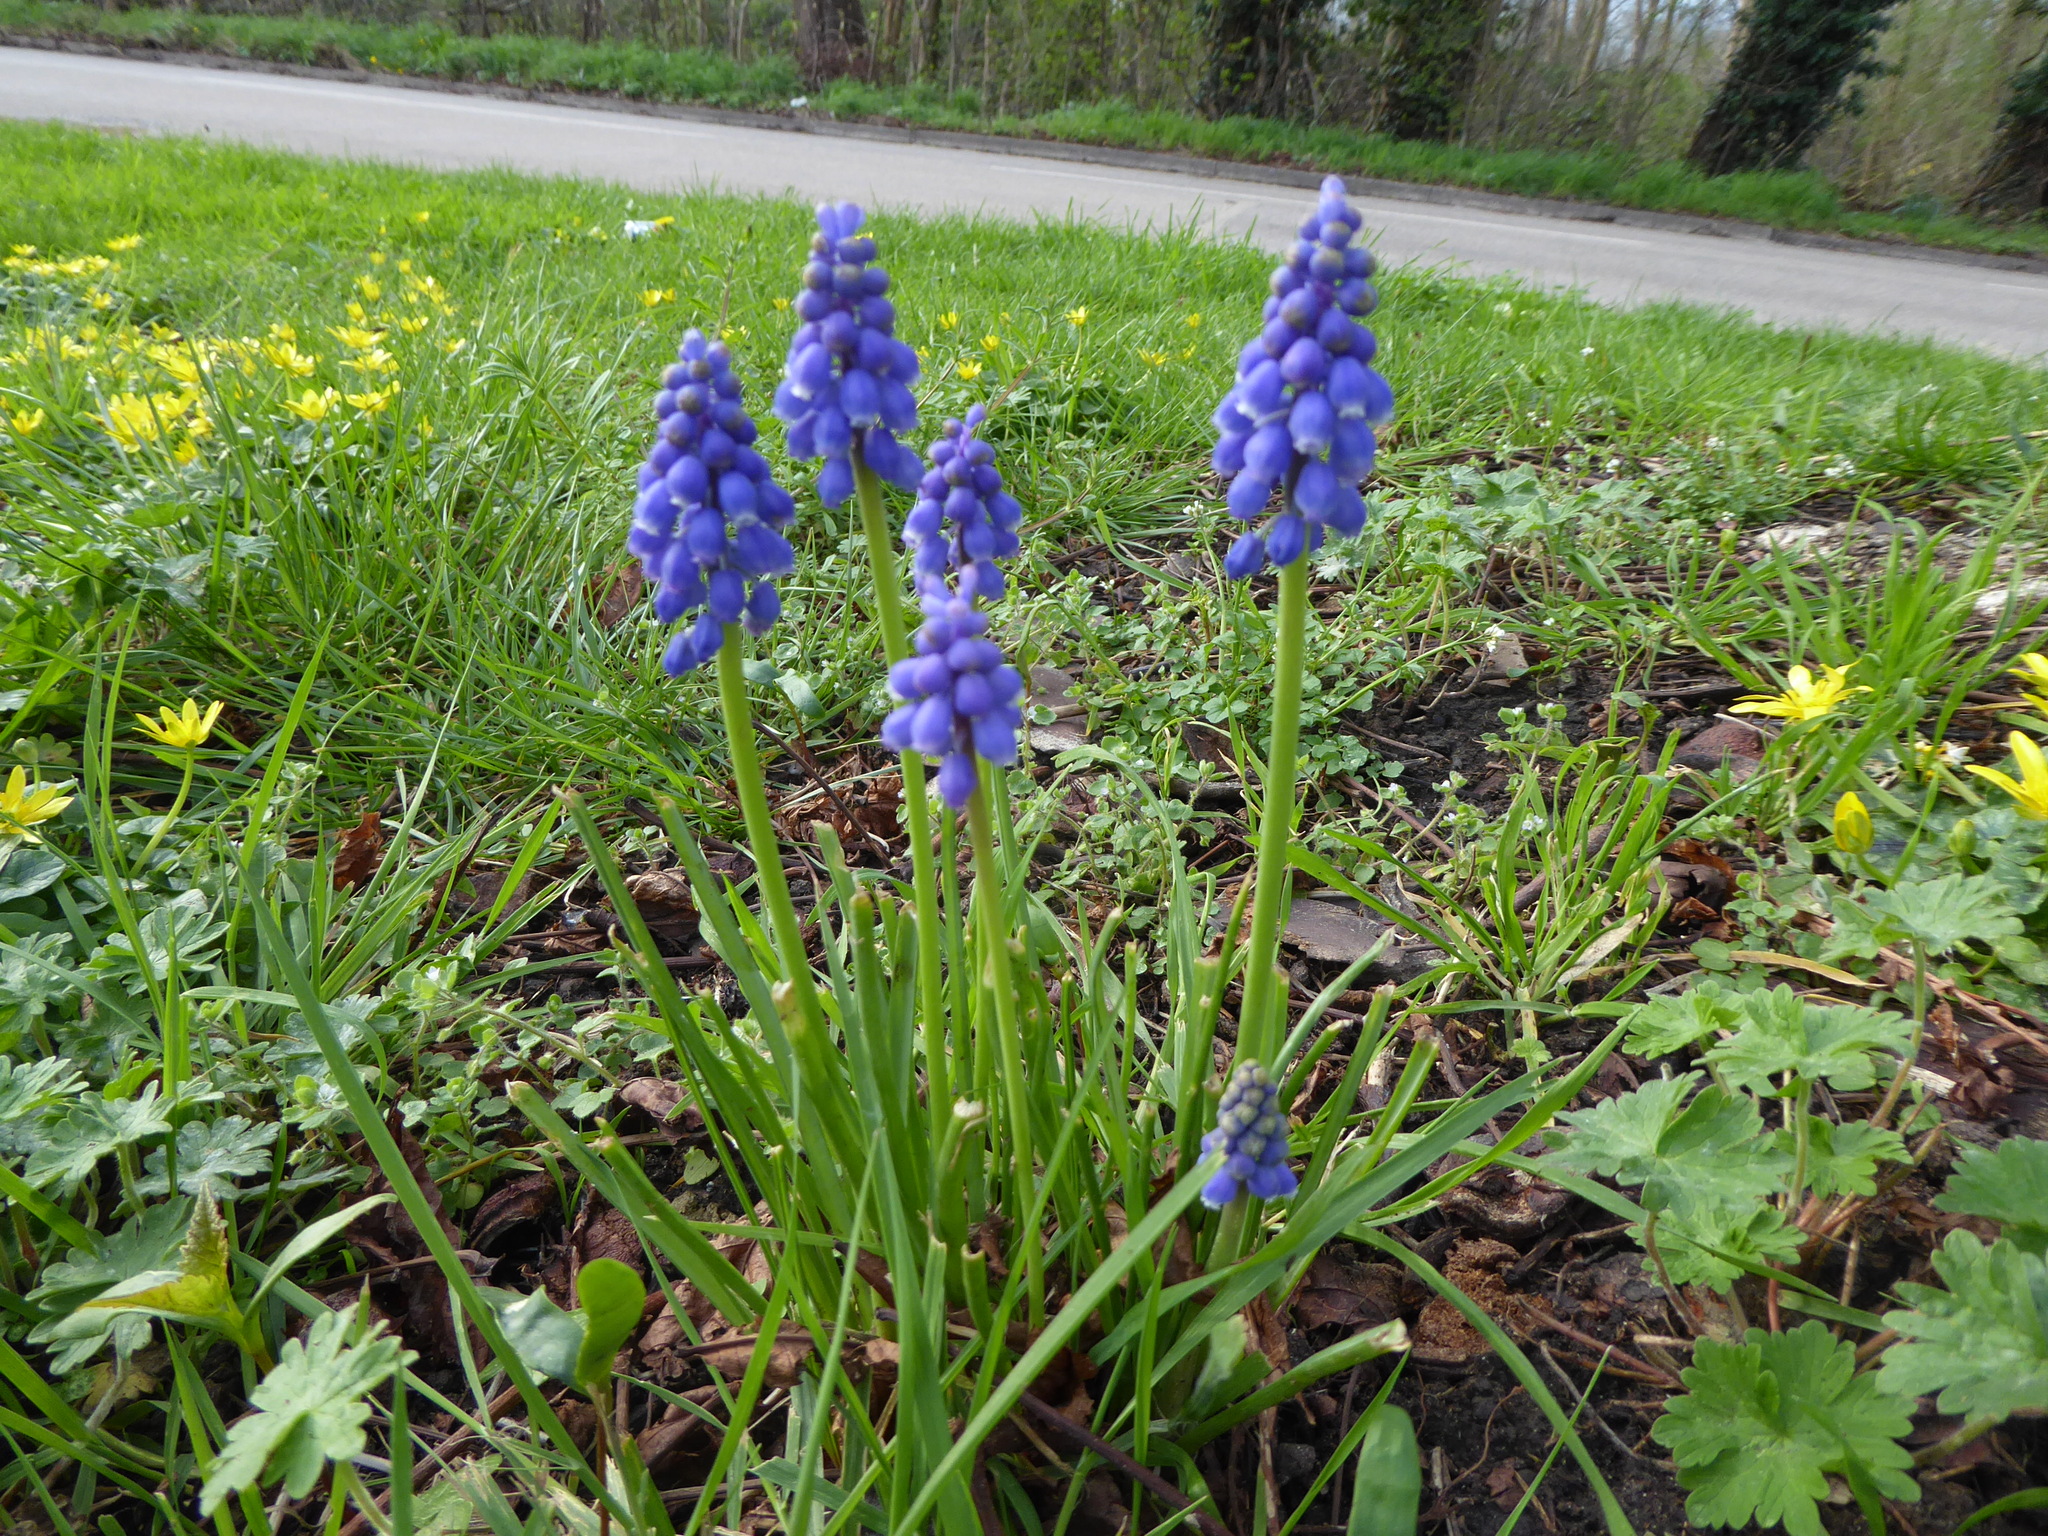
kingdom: Plantae
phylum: Tracheophyta
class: Liliopsida
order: Asparagales
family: Asparagaceae
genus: Muscari
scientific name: Muscari armeniacum
